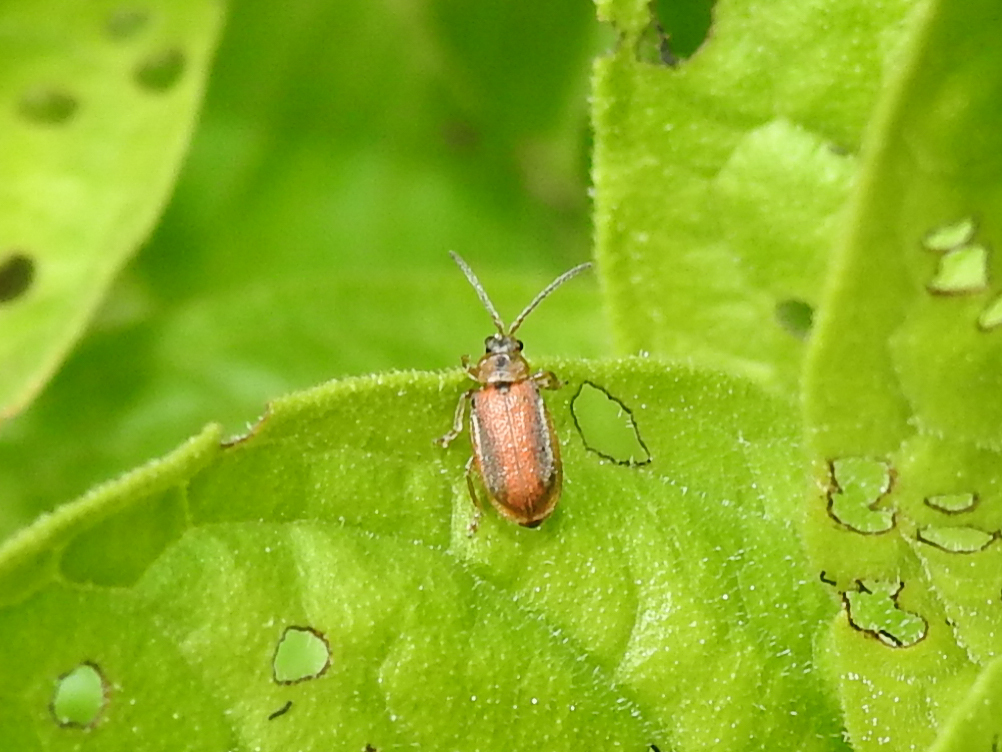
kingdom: Animalia
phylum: Arthropoda
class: Insecta
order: Coleoptera
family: Chrysomelidae
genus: Neogalerucella
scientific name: Neogalerucella calmariensis
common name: Black-margined loosestrife beetle
